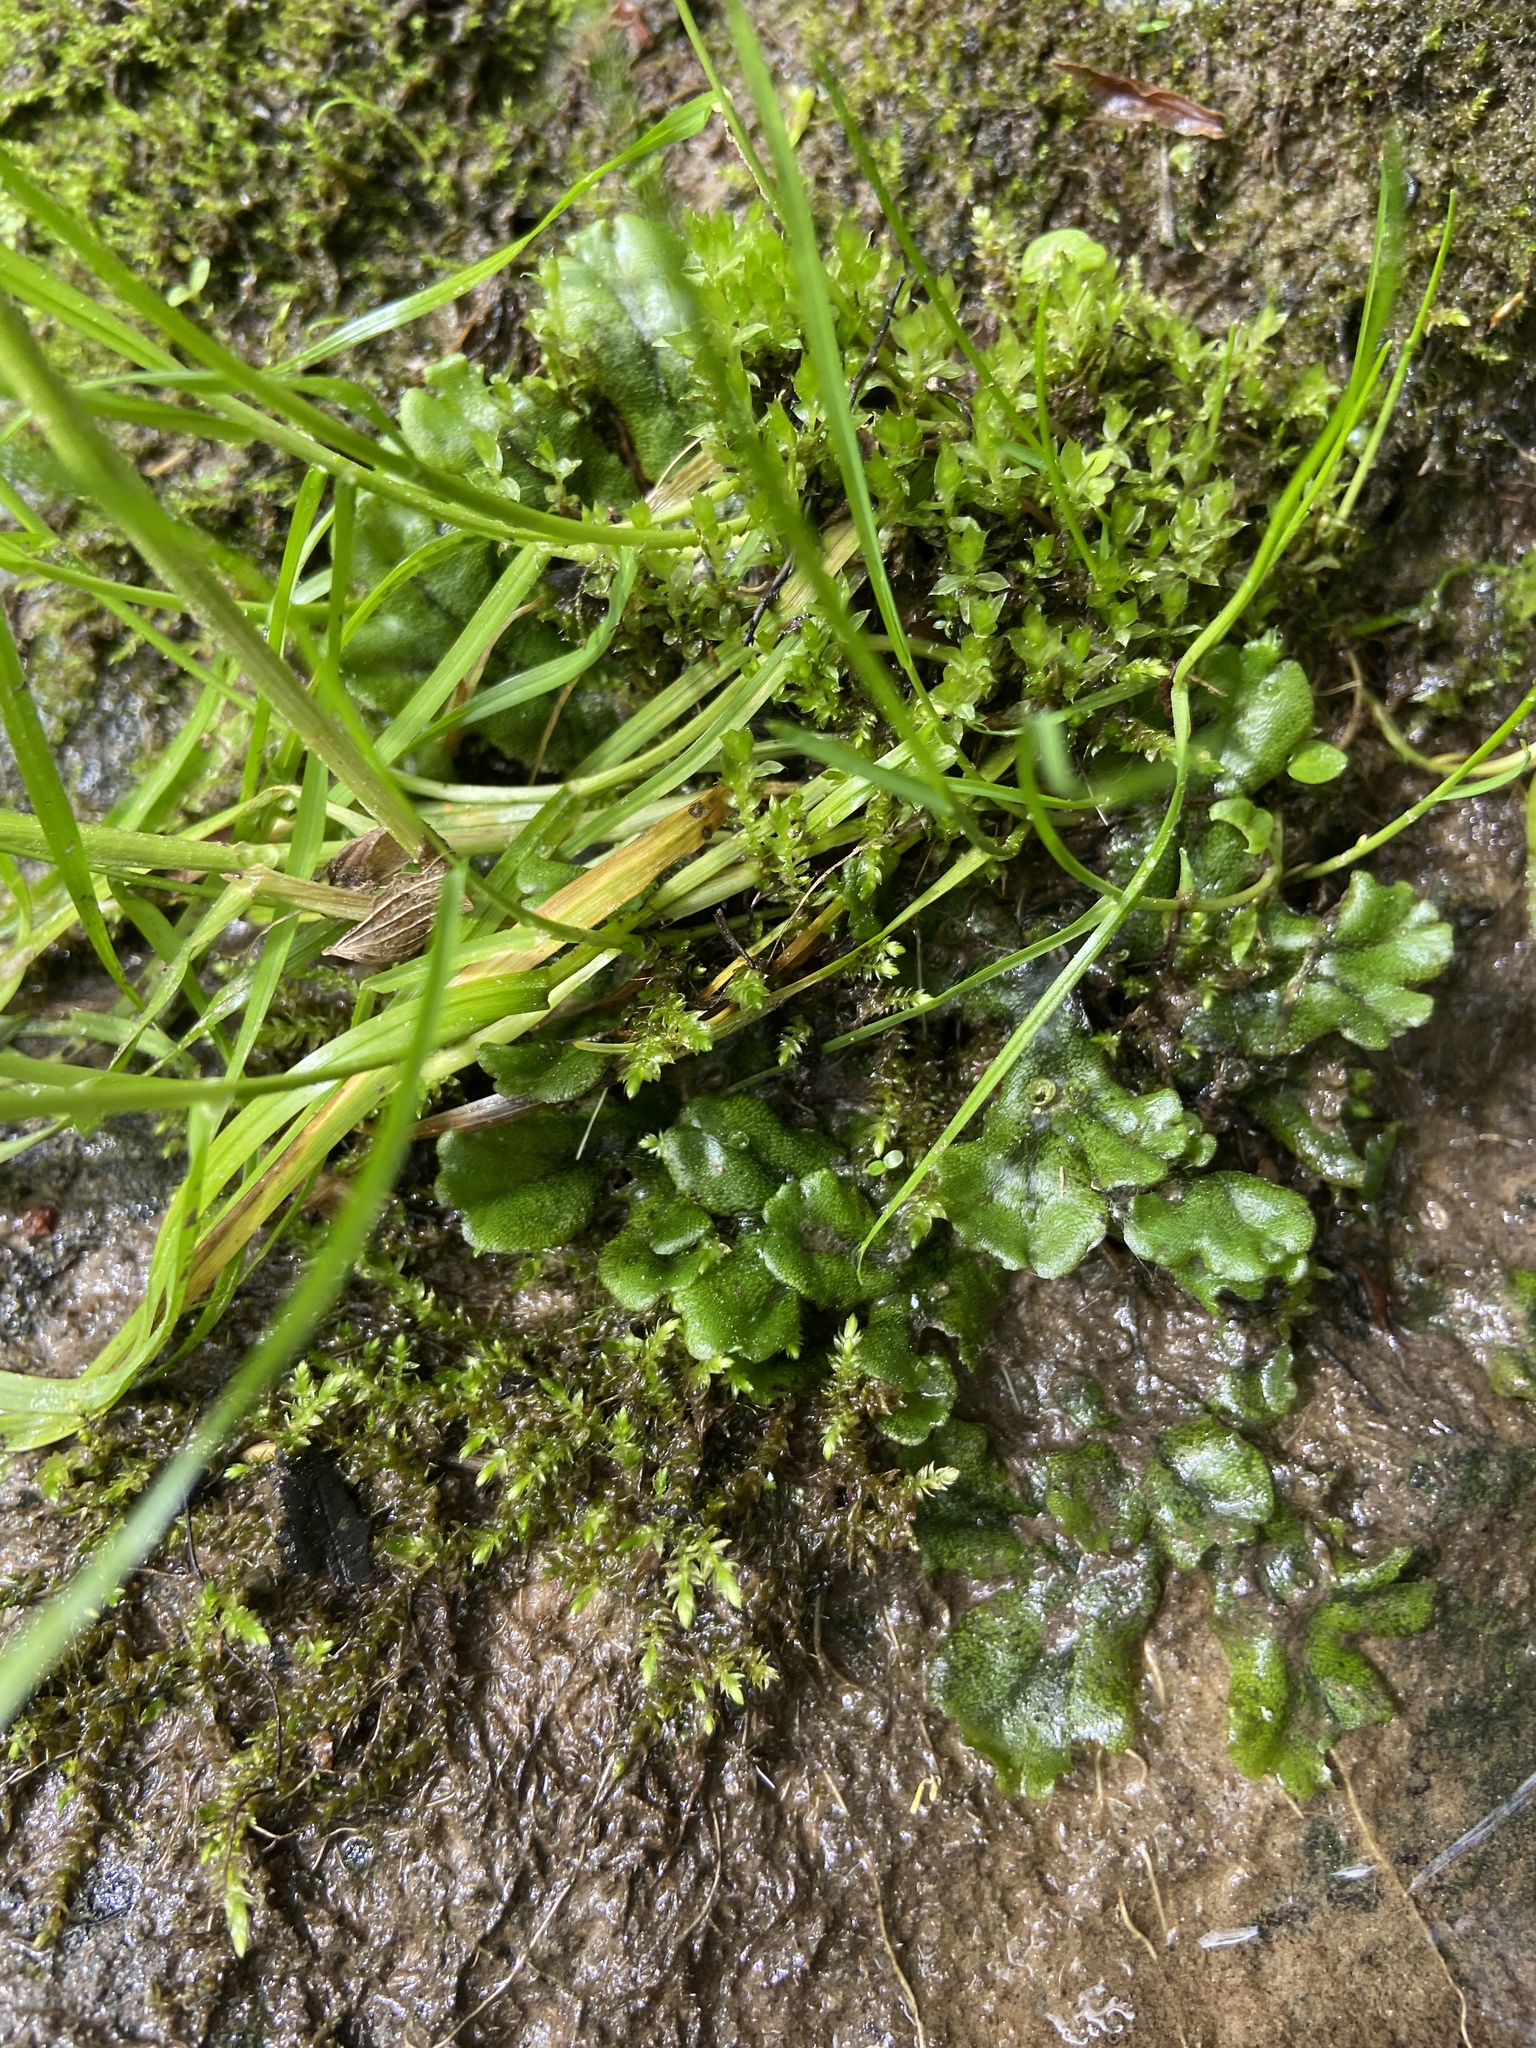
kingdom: Plantae
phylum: Marchantiophyta
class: Marchantiopsida
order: Marchantiales
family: Marchantiaceae
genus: Marchantia
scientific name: Marchantia polymorpha
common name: Common liverwort
